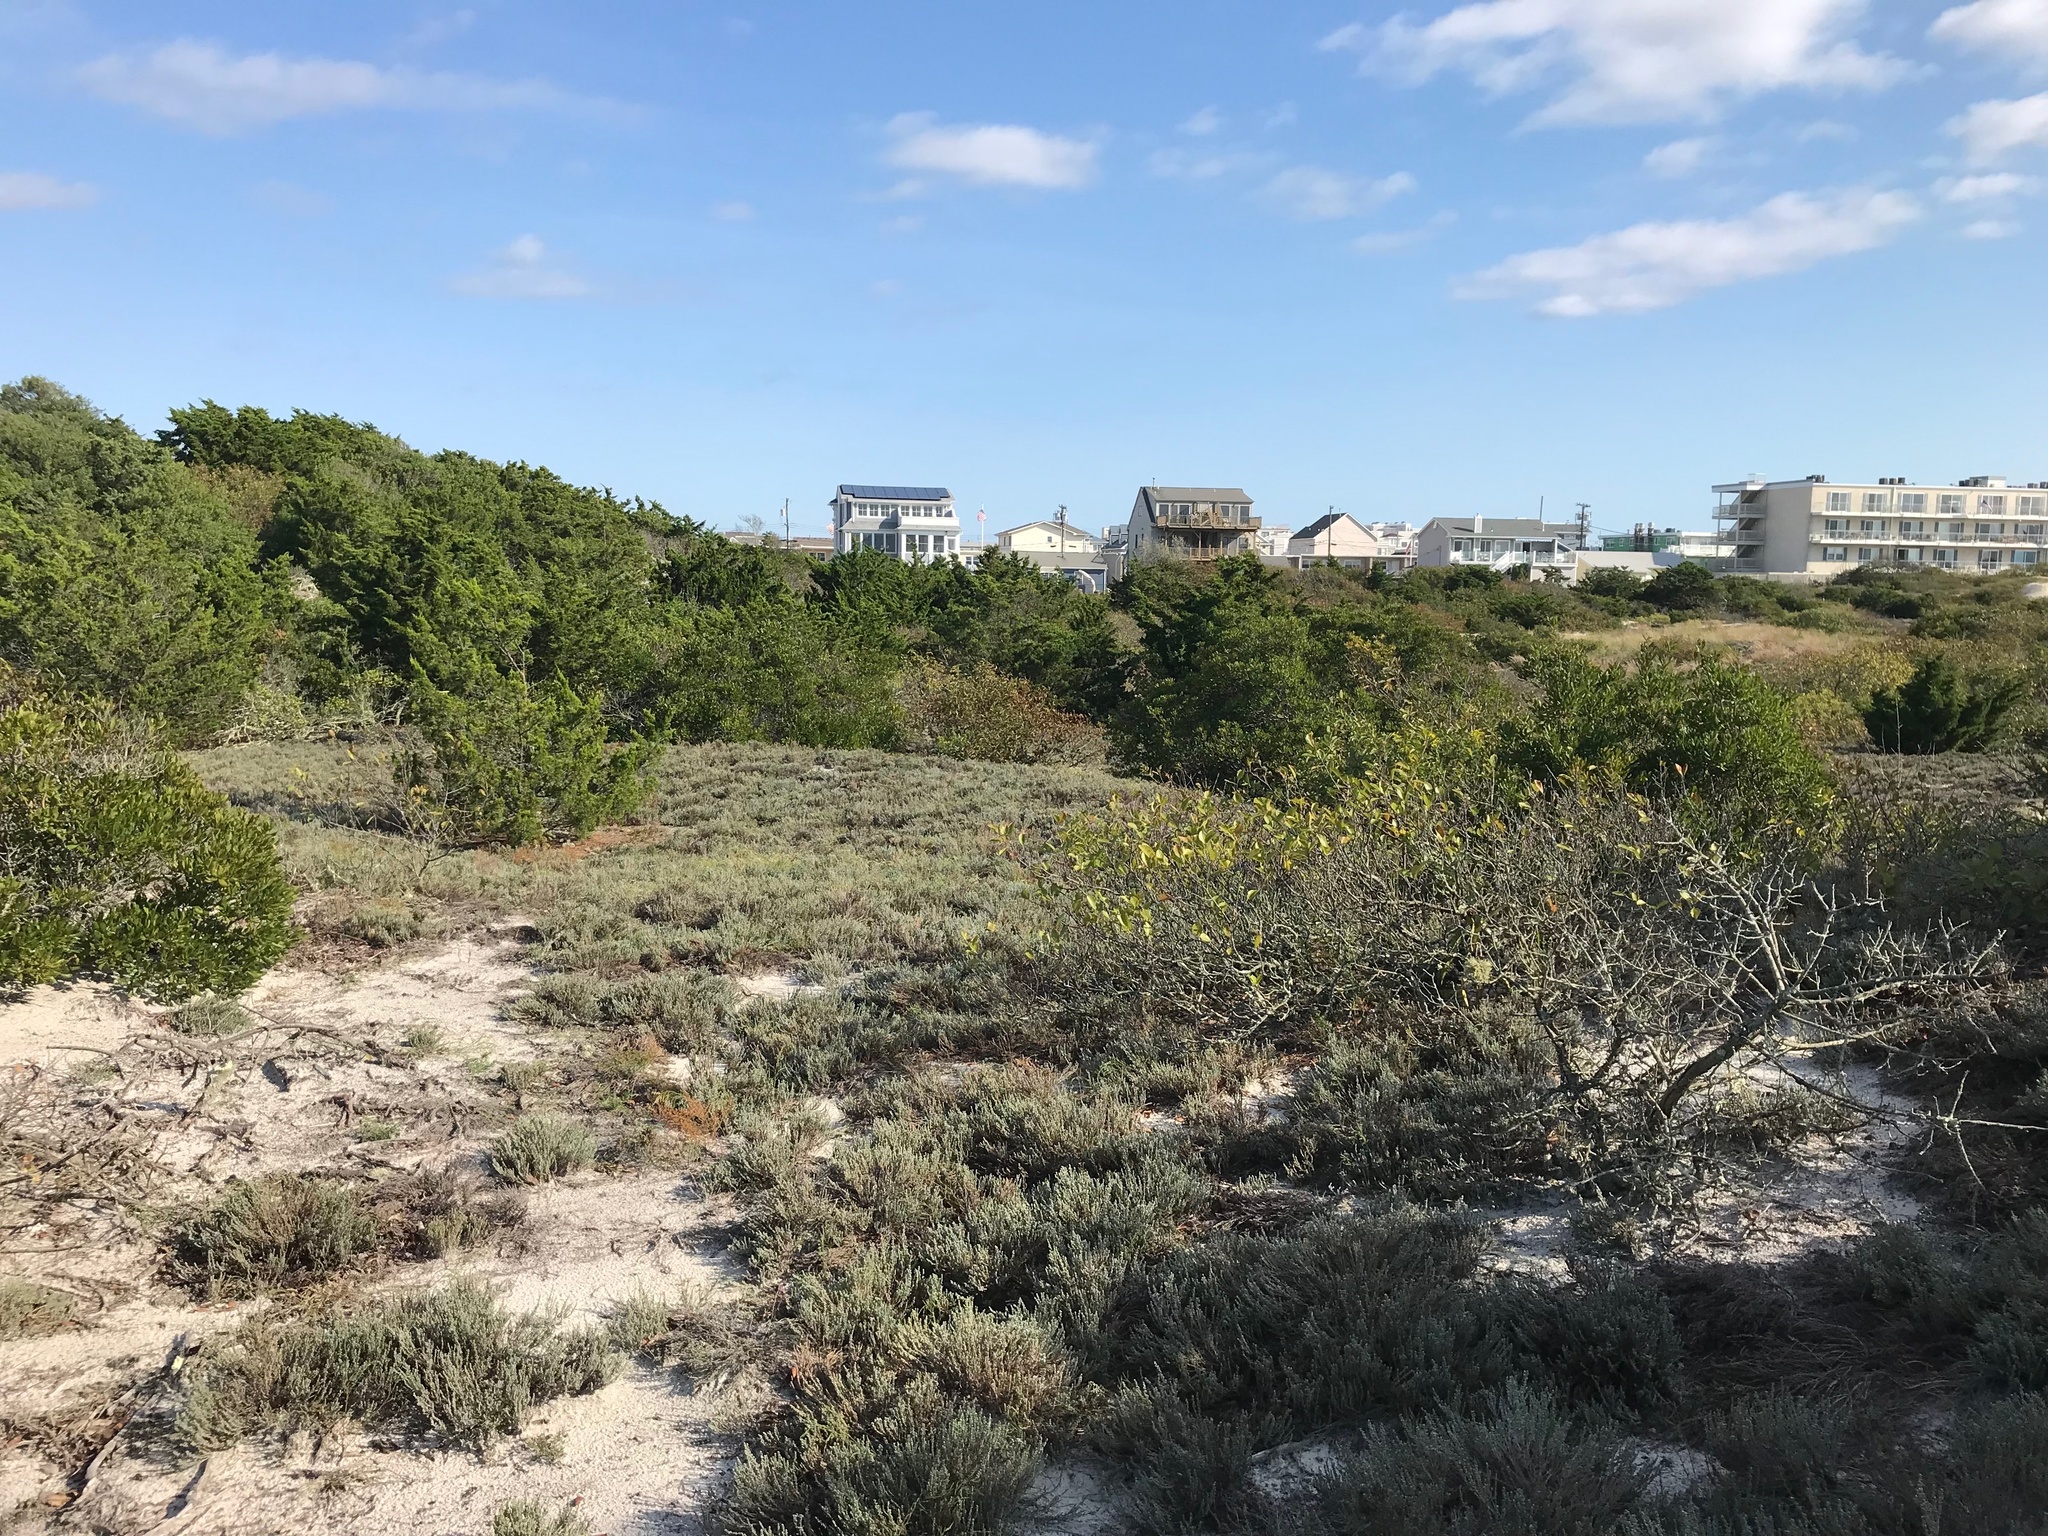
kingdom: Plantae
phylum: Tracheophyta
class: Magnoliopsida
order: Malvales
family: Cistaceae
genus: Hudsonia
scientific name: Hudsonia tomentosa
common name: Beach-heath
